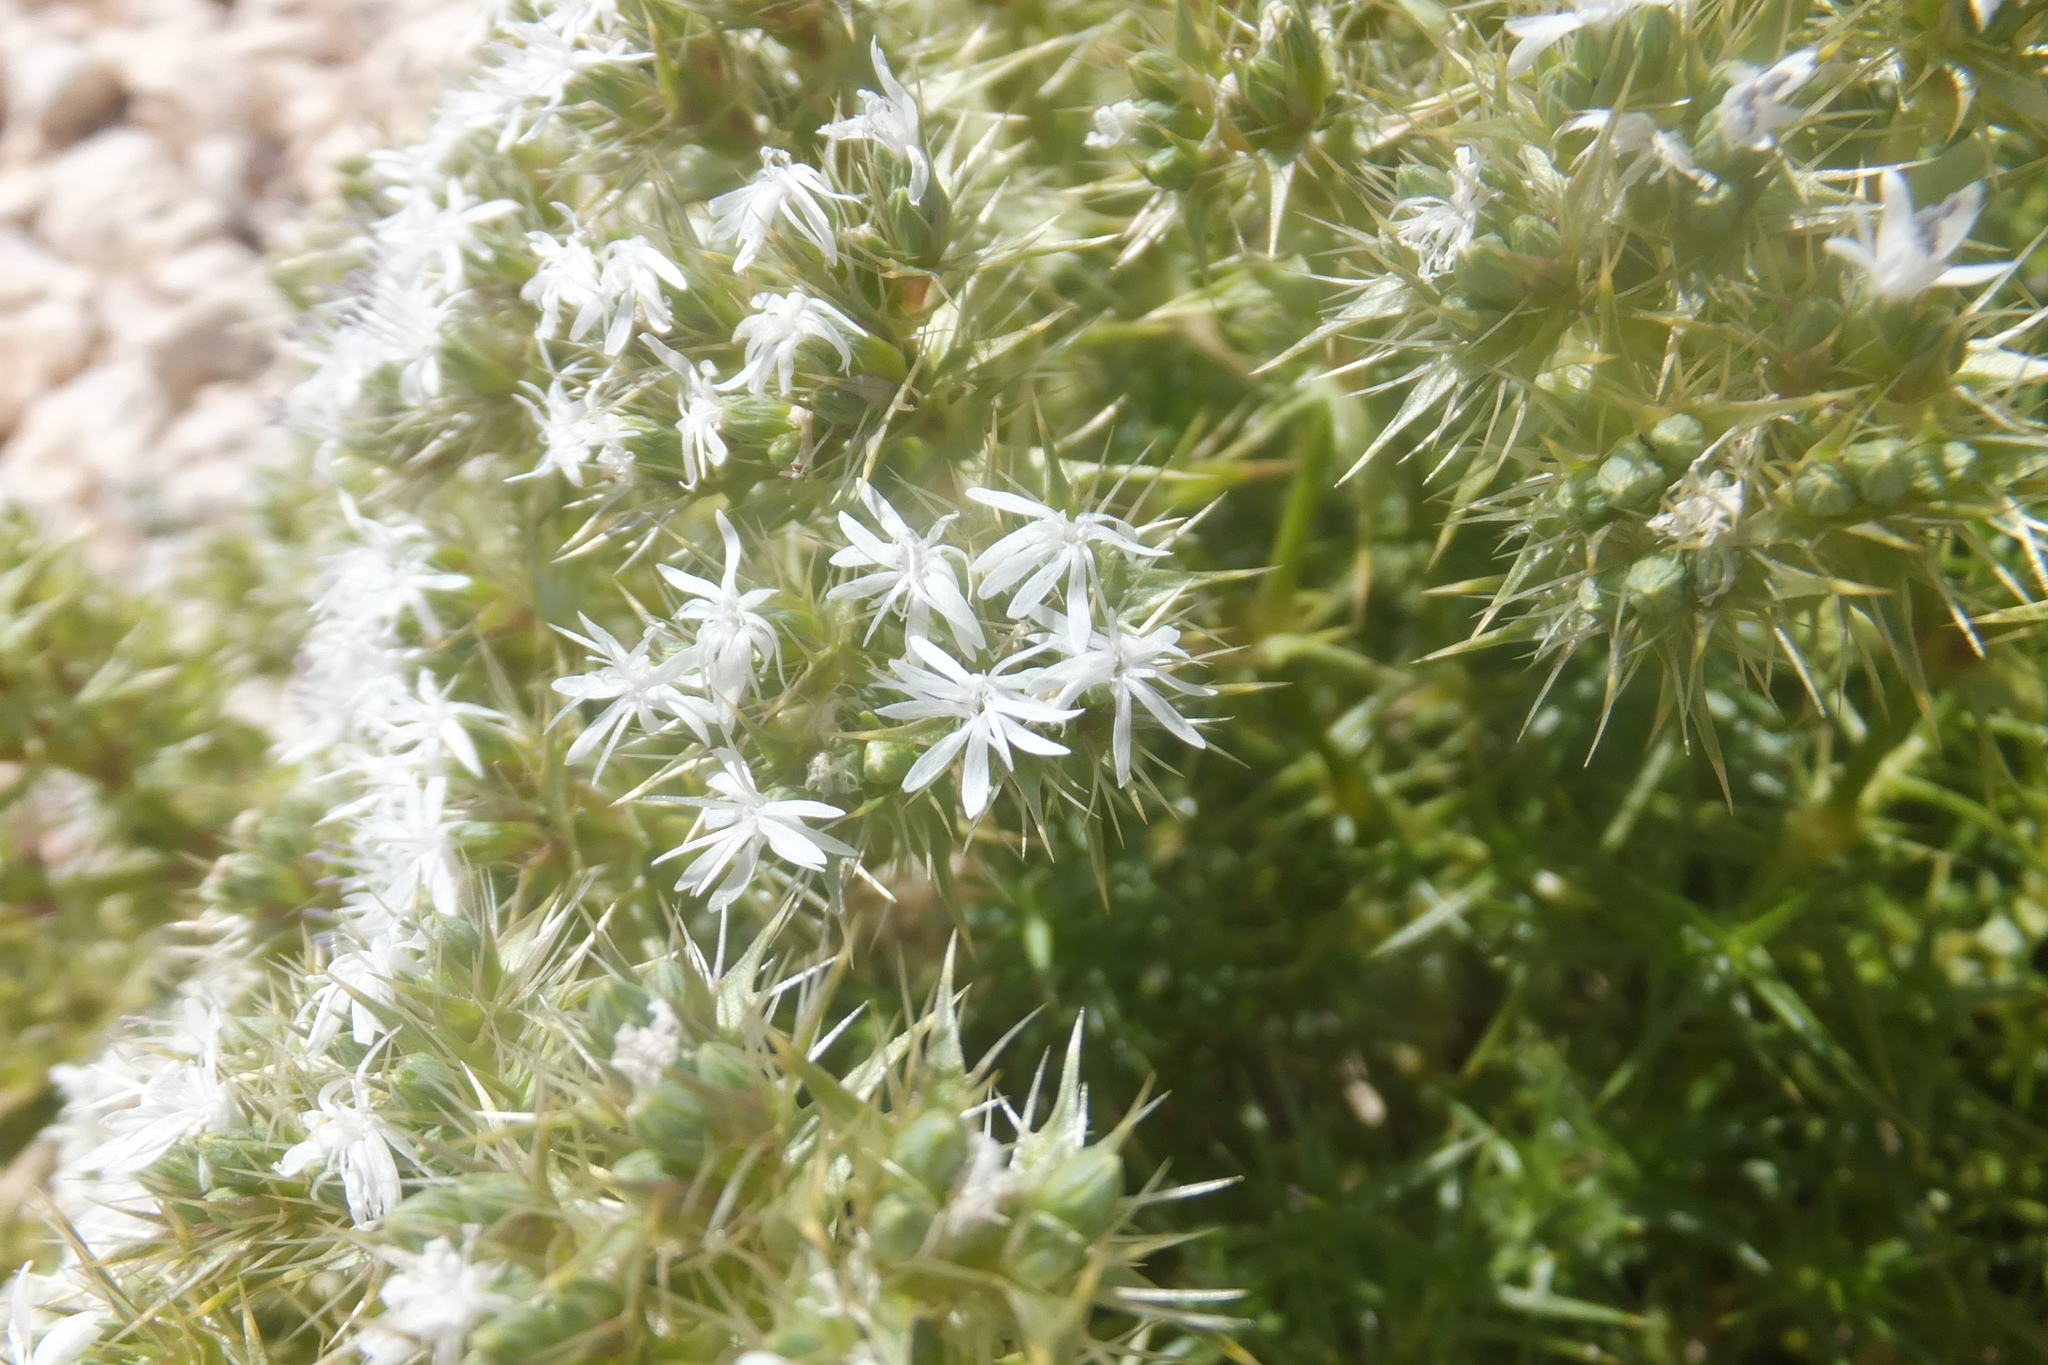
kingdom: Plantae
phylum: Tracheophyta
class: Magnoliopsida
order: Caryophyllales
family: Caryophyllaceae
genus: Drypis
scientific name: Drypis spinosa
